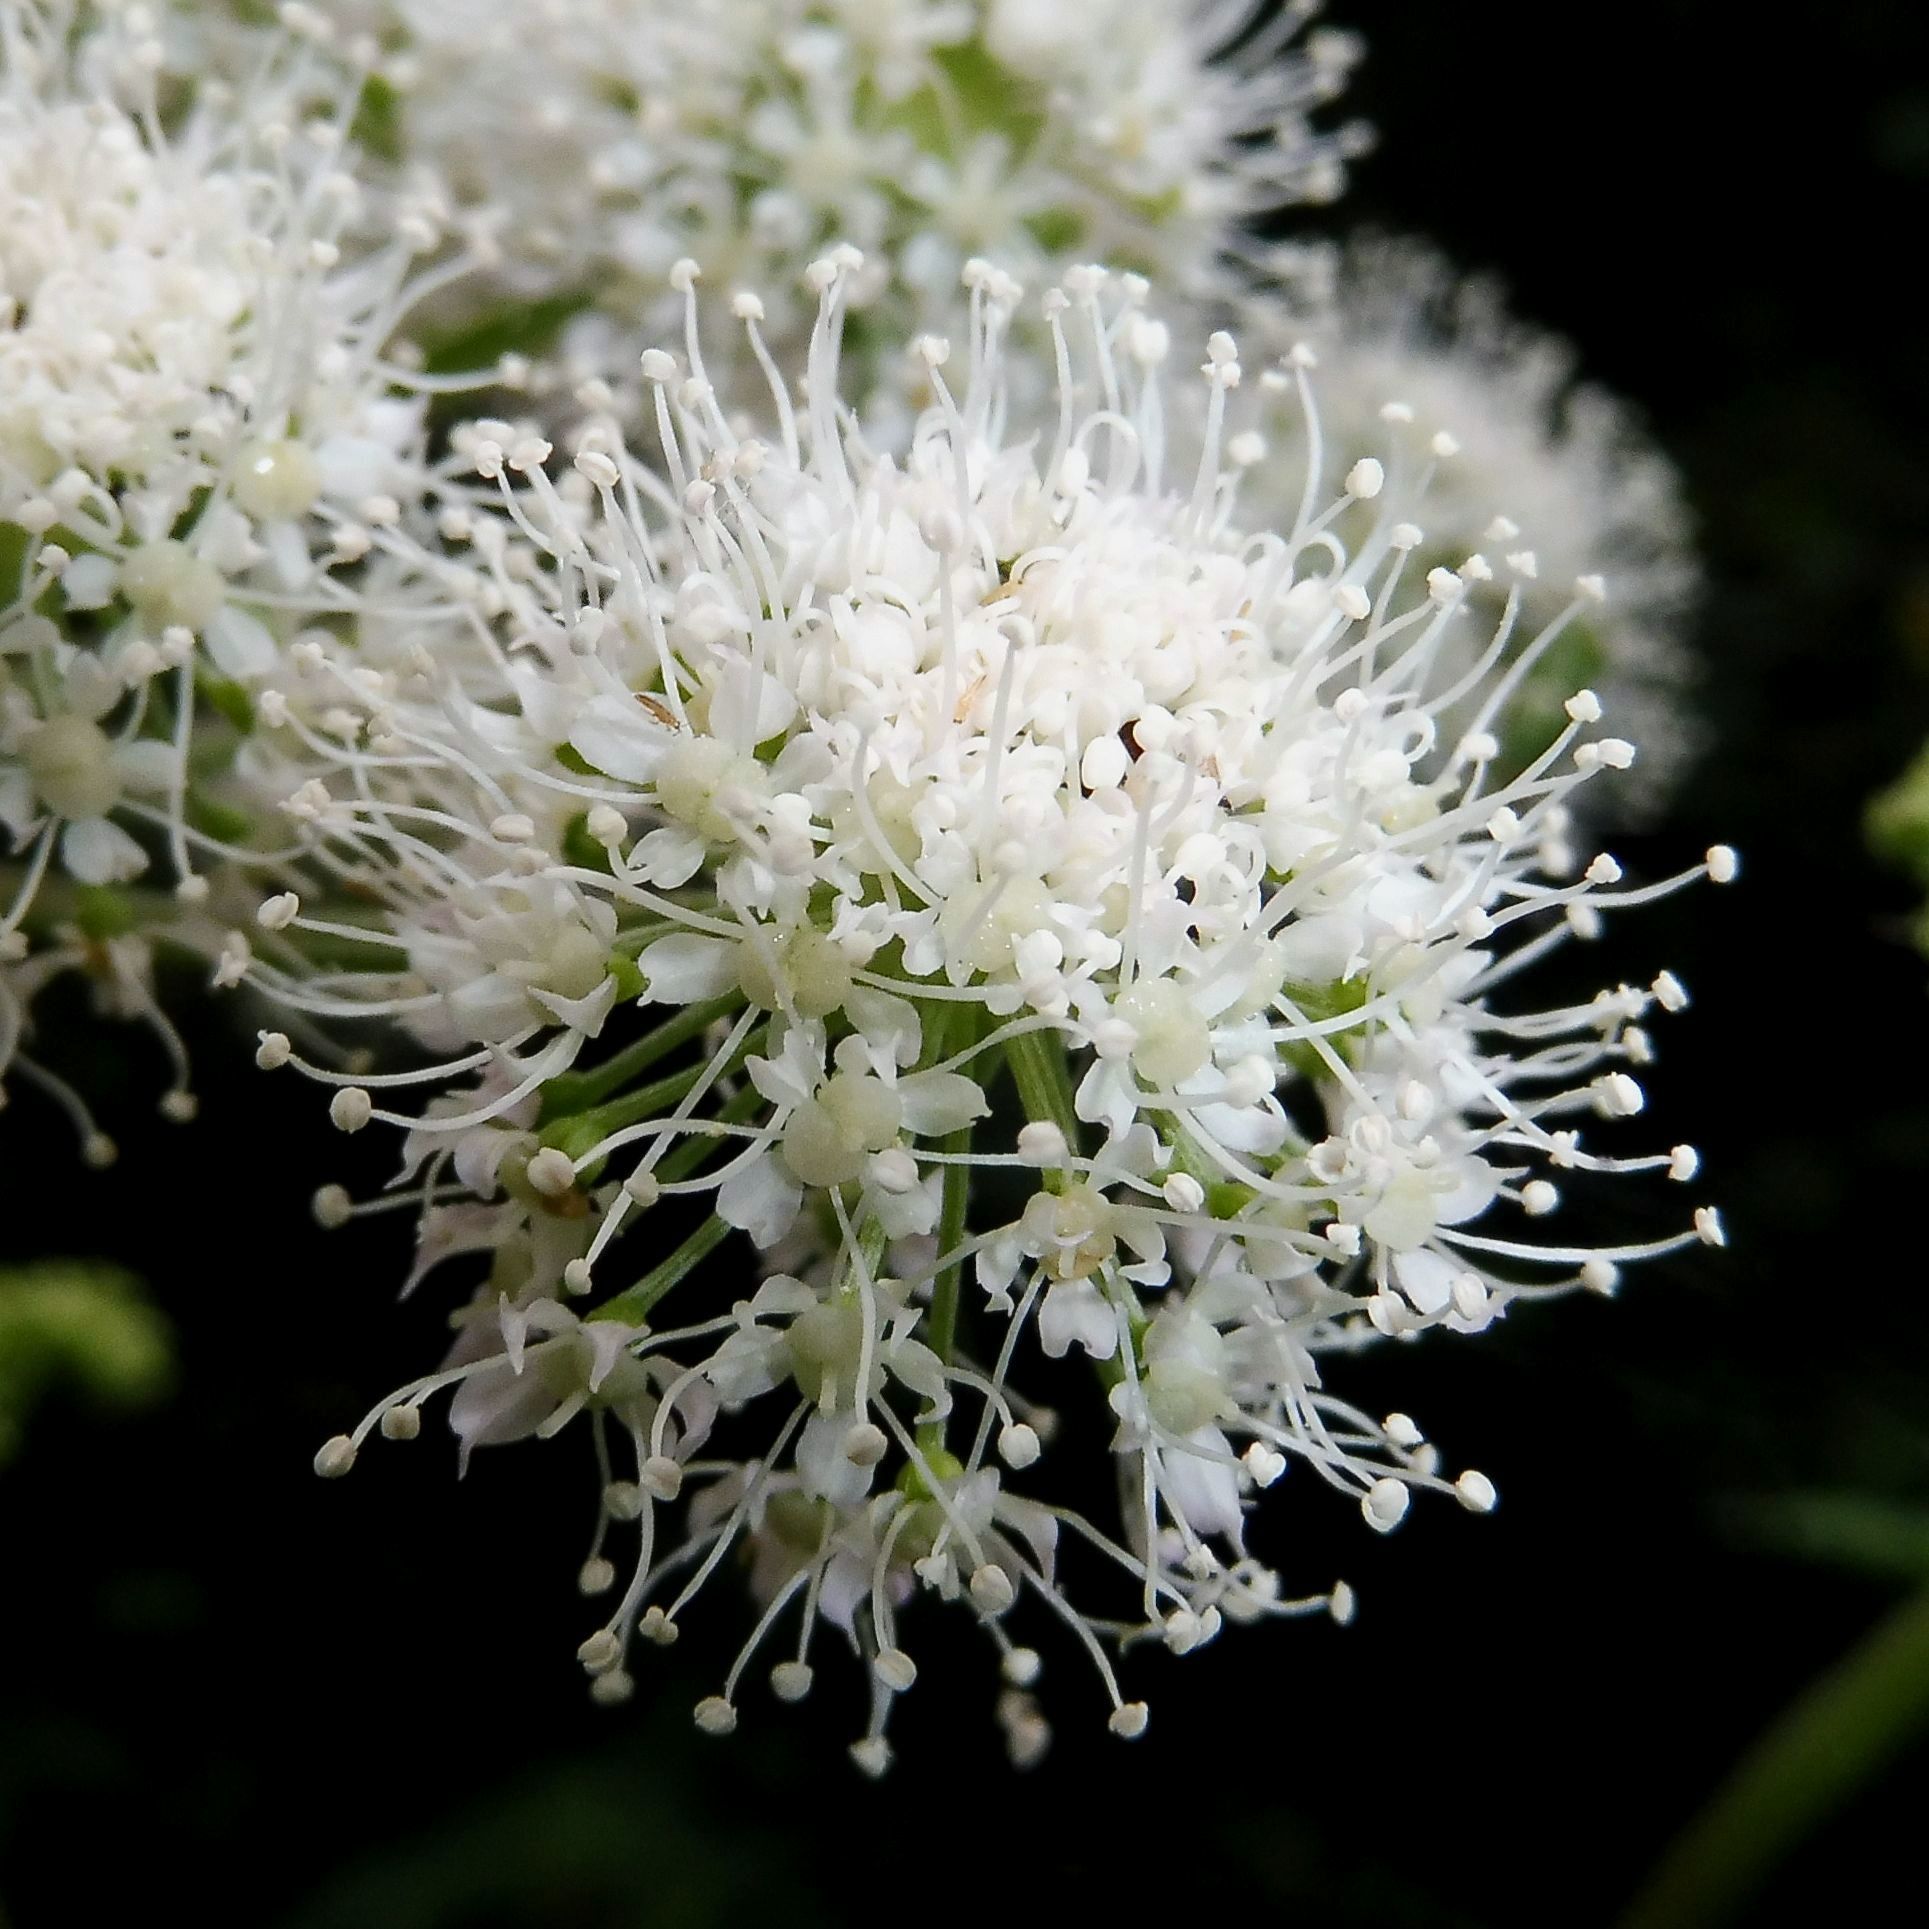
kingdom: Plantae
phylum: Tracheophyta
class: Magnoliopsida
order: Apiales
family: Apiaceae
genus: Angelica
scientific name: Angelica sylvestris
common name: Wild angelica
